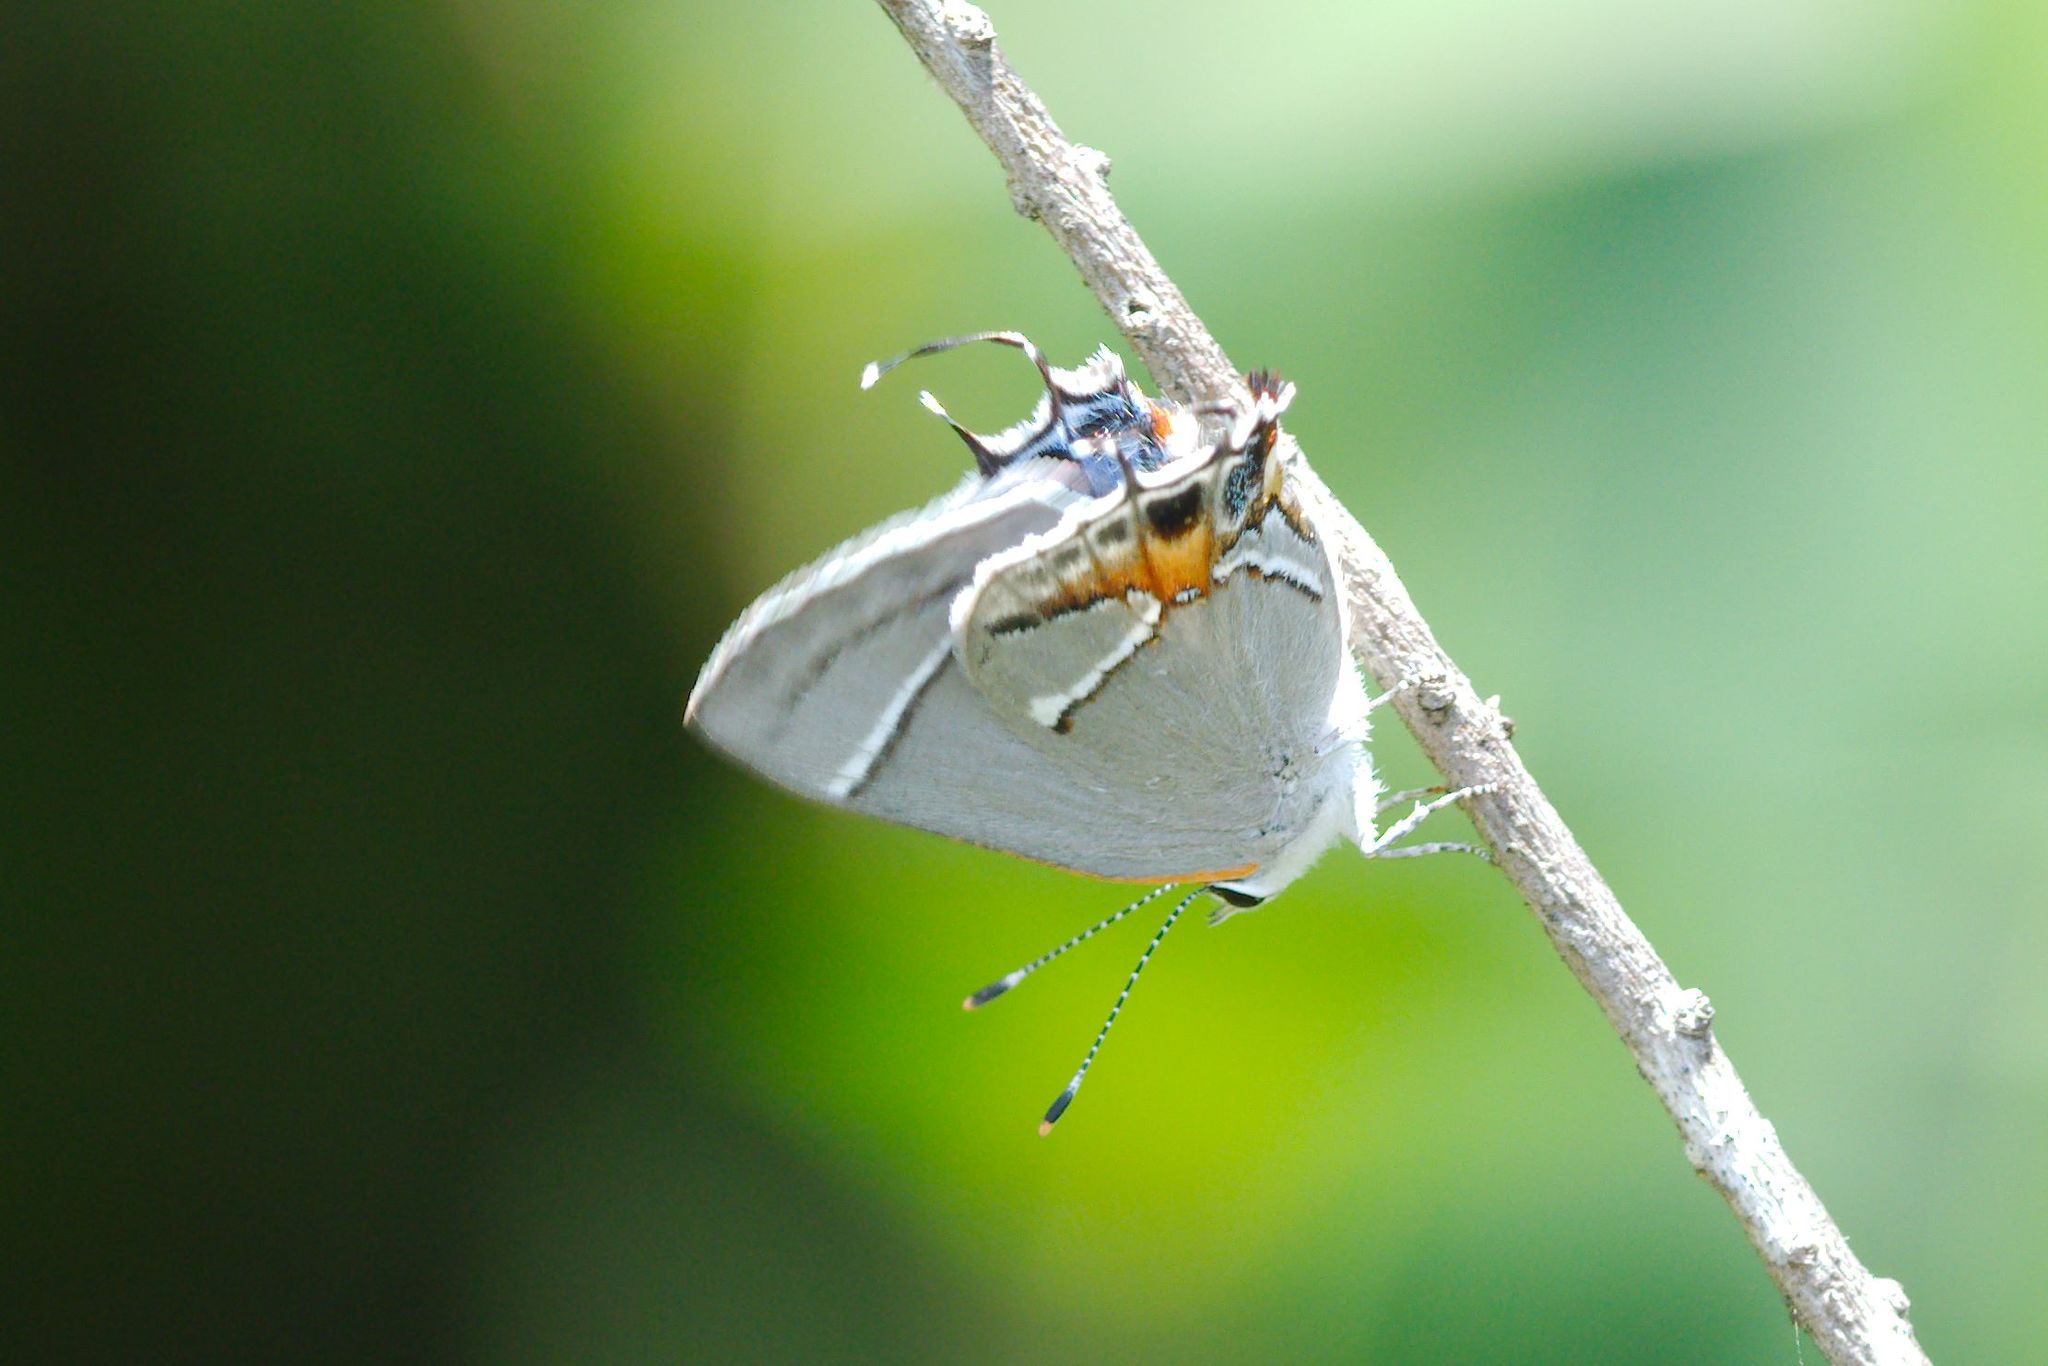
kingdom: Animalia
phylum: Arthropoda
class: Insecta
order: Lepidoptera
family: Lycaenidae
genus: Thecla
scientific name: Thecla martialis
